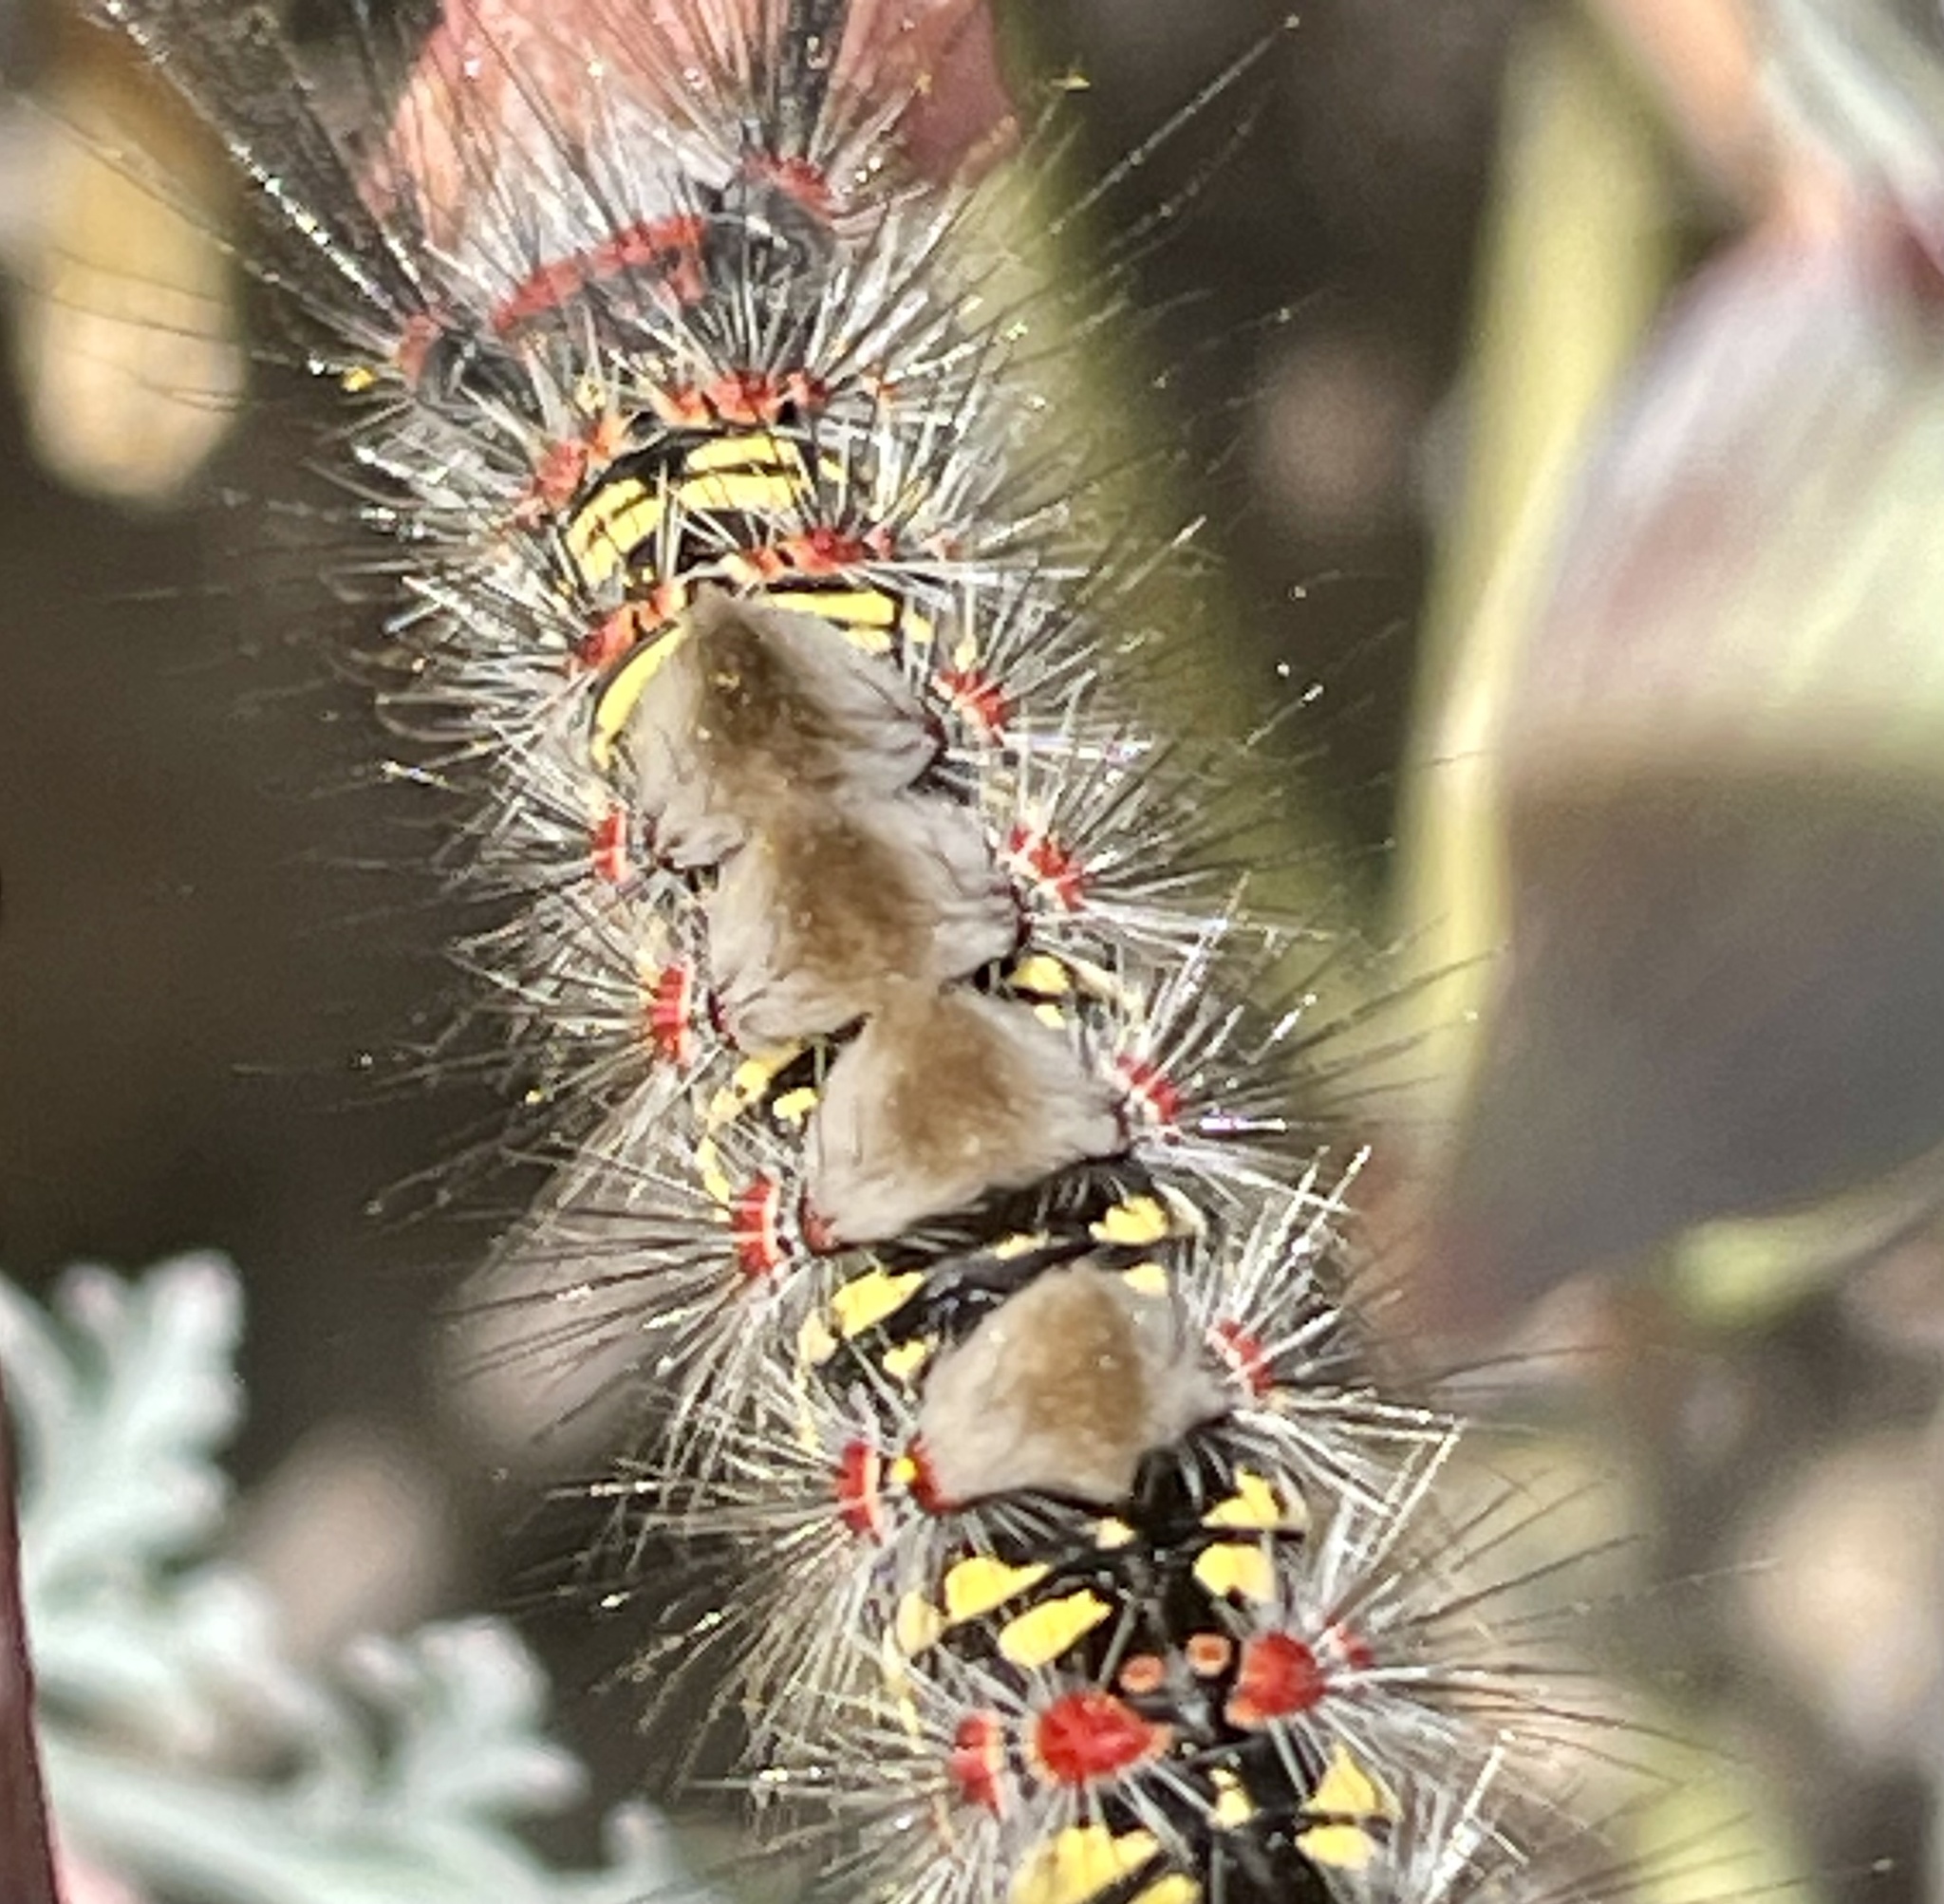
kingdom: Animalia
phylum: Arthropoda
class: Insecta
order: Lepidoptera
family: Erebidae
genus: Orgyia
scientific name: Orgyia vetusta
